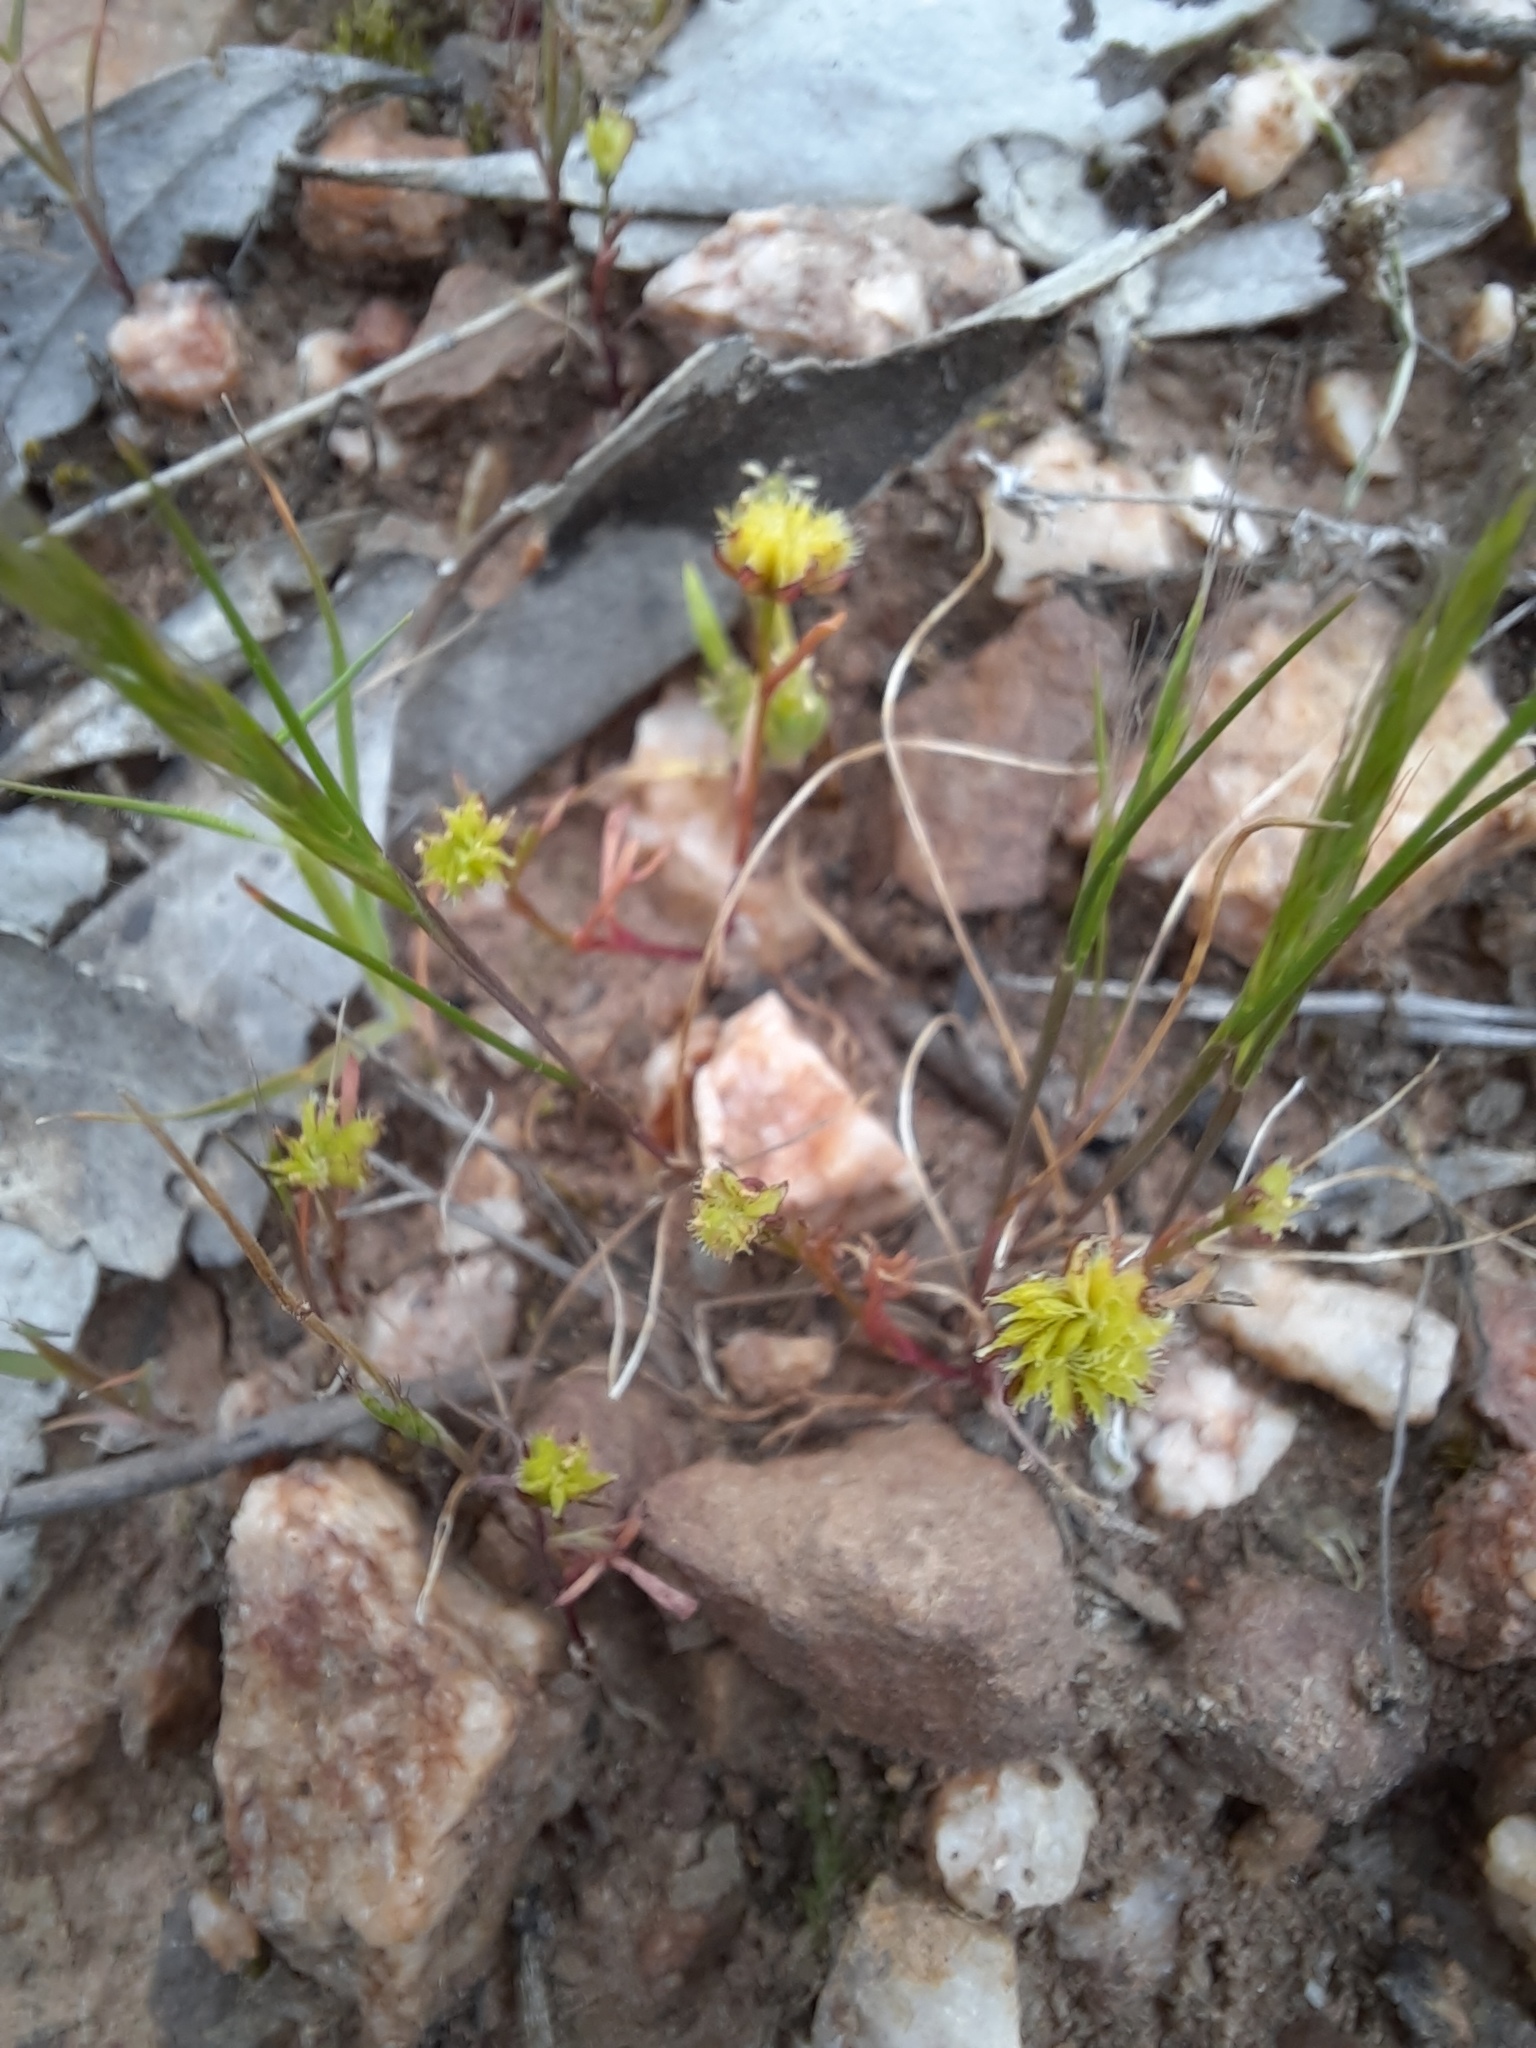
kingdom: Plantae
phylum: Tracheophyta
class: Magnoliopsida
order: Asterales
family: Asteraceae
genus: Cotula
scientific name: Cotula bipinnata
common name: Ferny buttonweed
